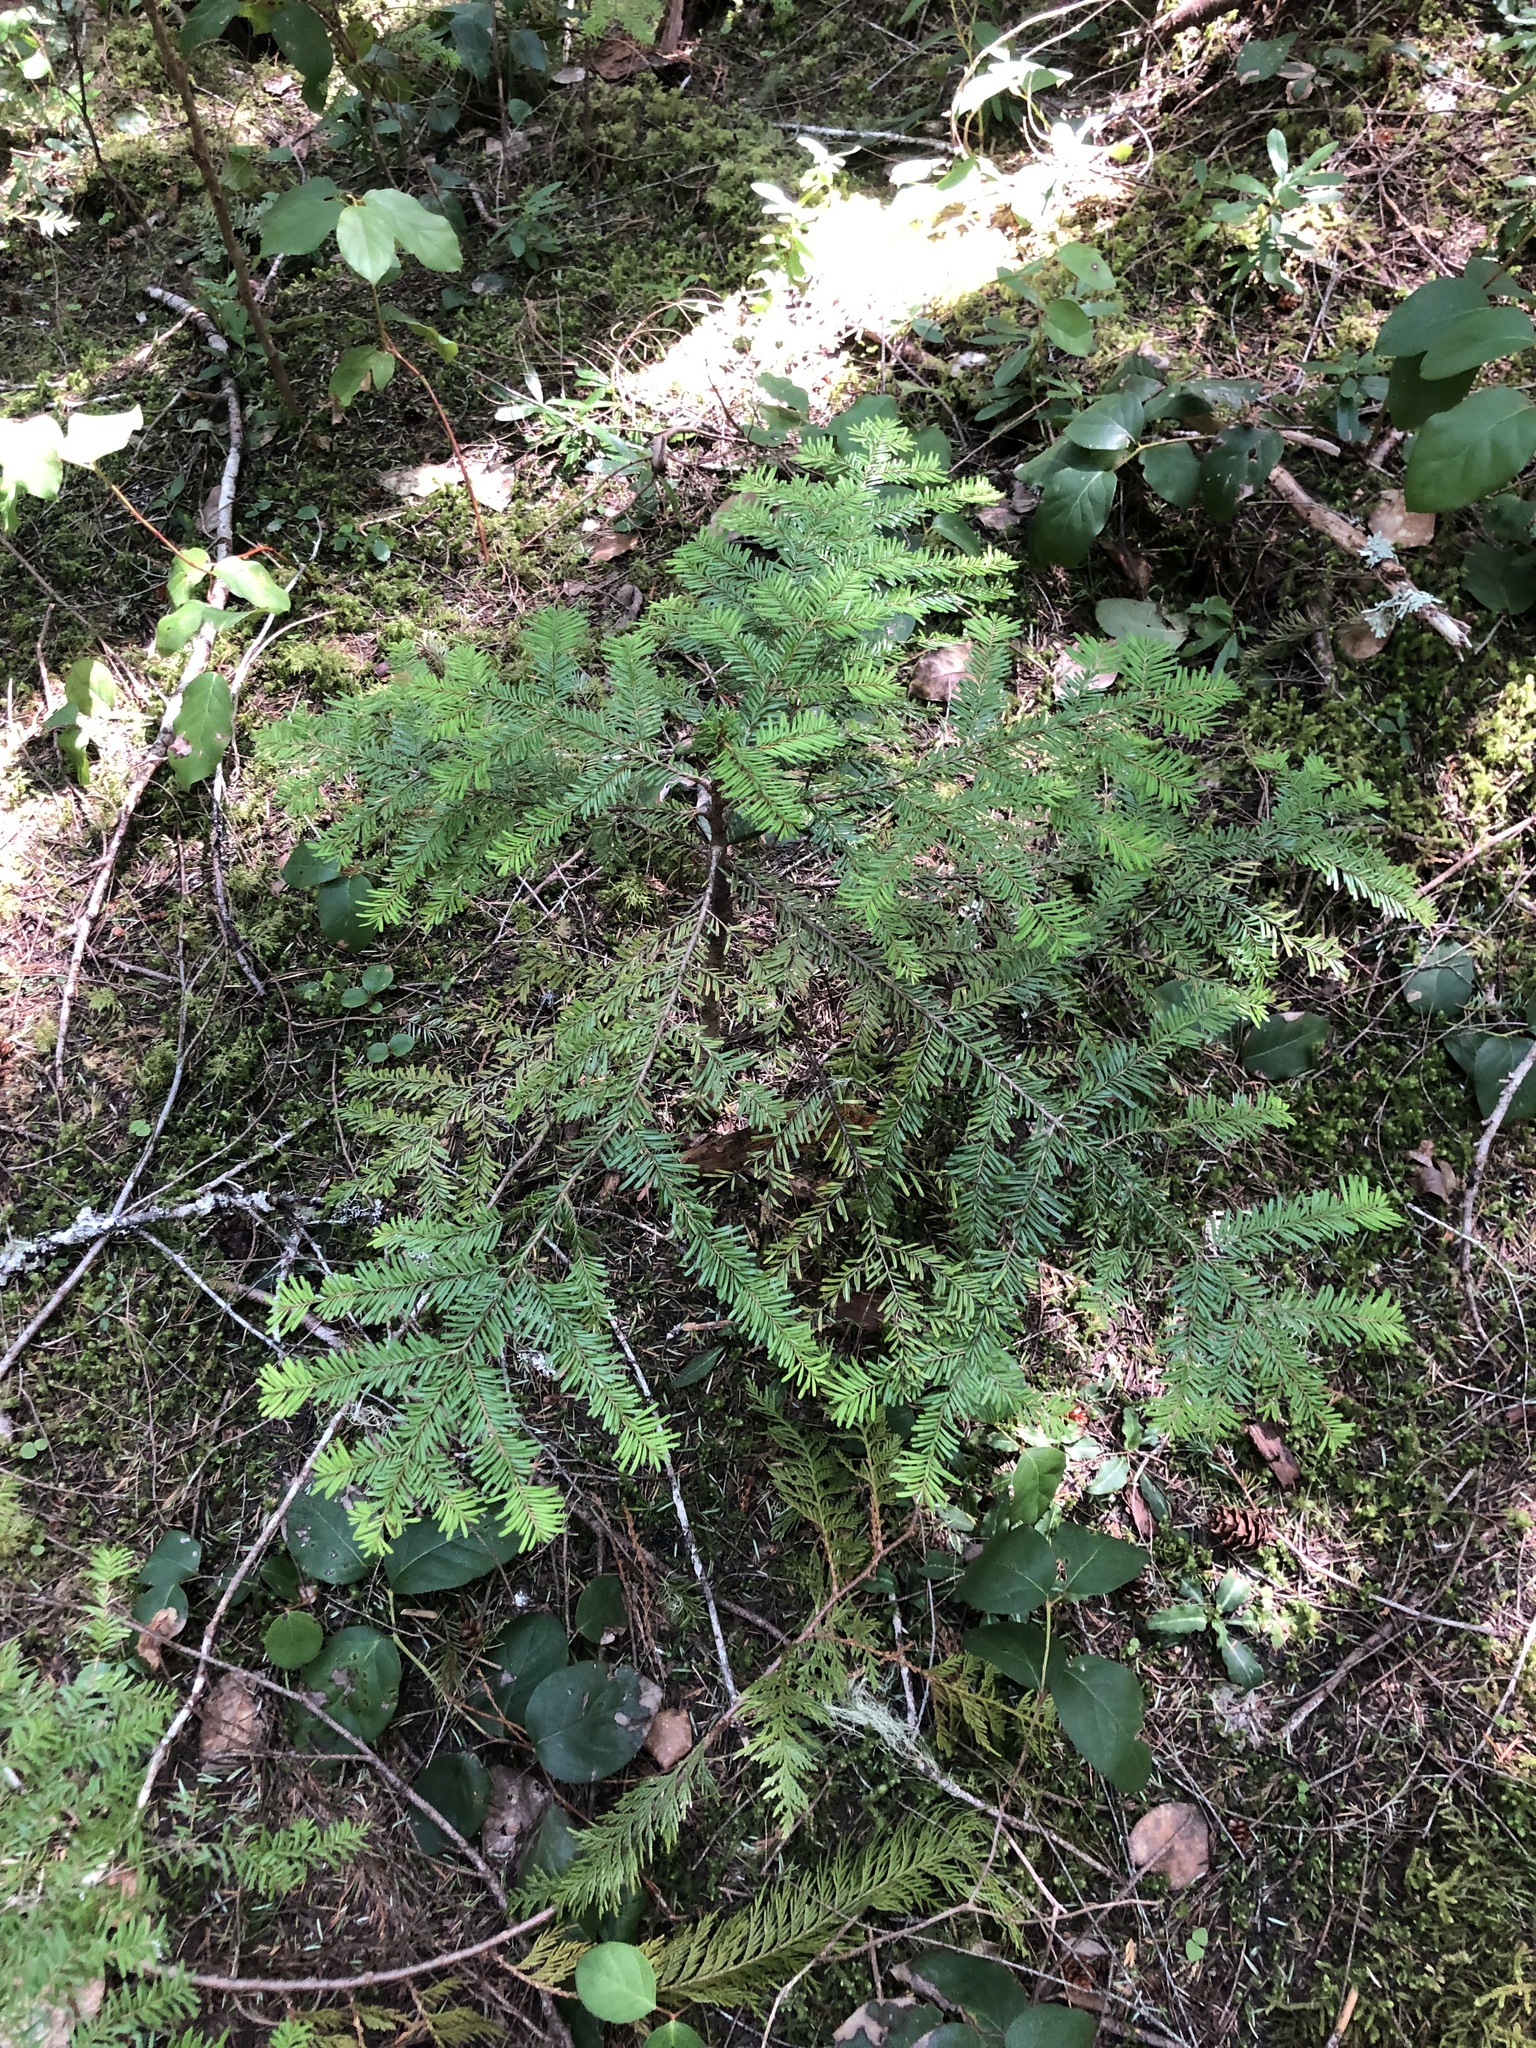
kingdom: Plantae
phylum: Tracheophyta
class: Pinopsida
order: Pinales
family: Pinaceae
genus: Abies
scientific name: Abies amabilis
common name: Pacific silver fir
